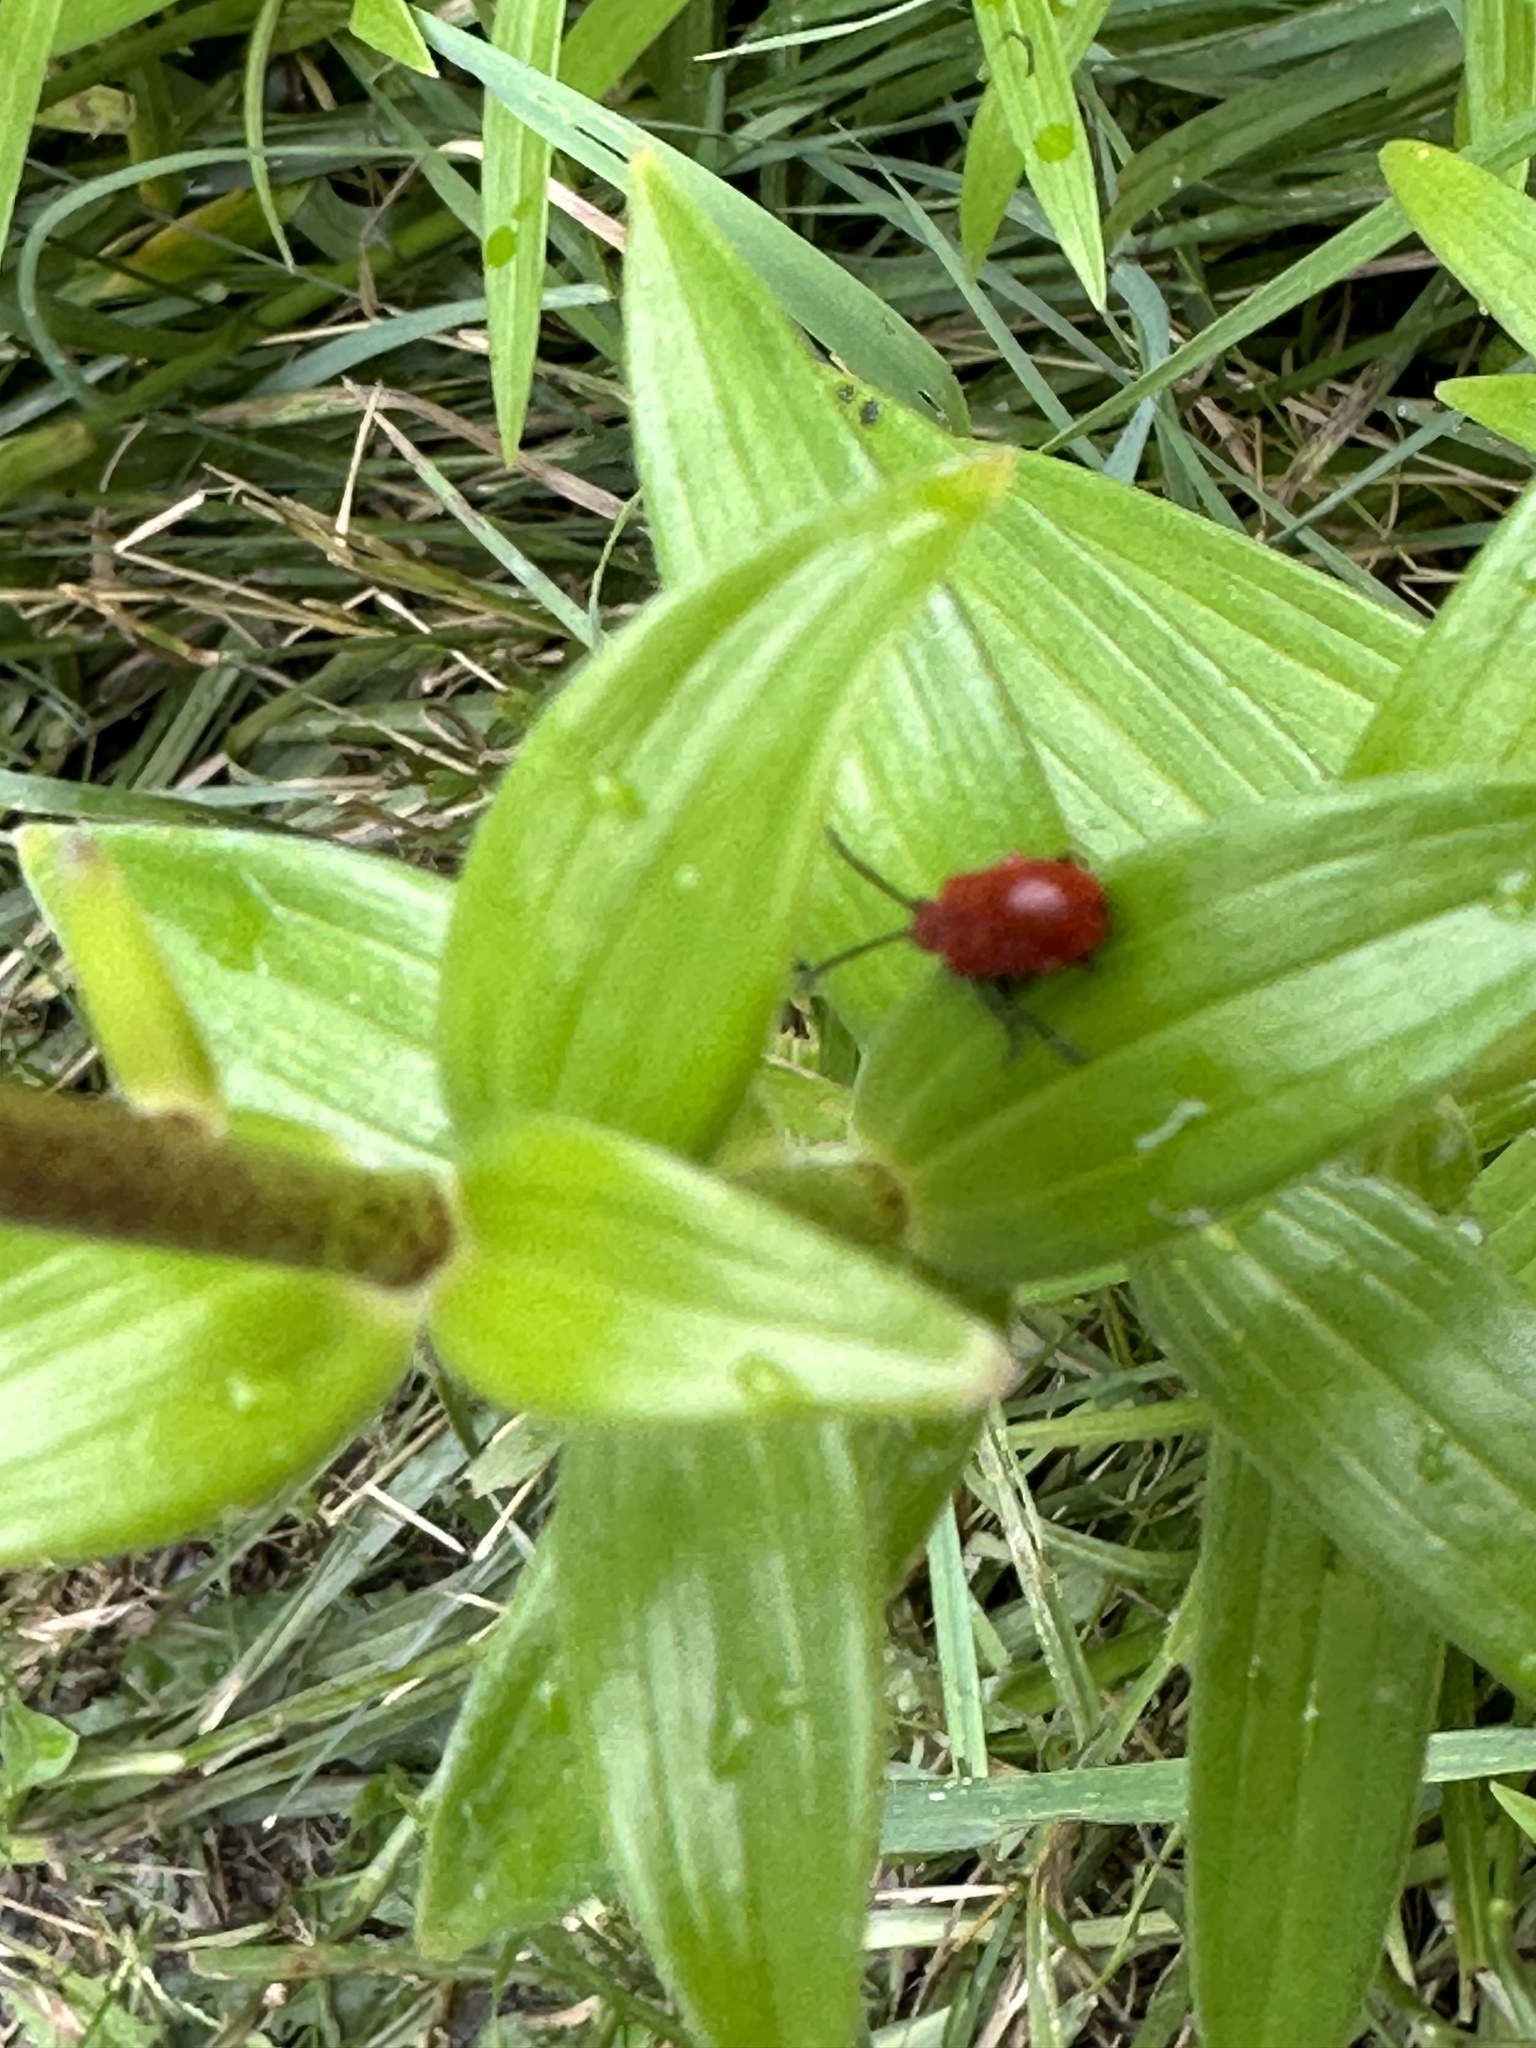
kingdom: Animalia
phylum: Arthropoda
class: Insecta
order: Coleoptera
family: Chrysomelidae
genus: Lilioceris
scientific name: Lilioceris lilii
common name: Lily beetle
